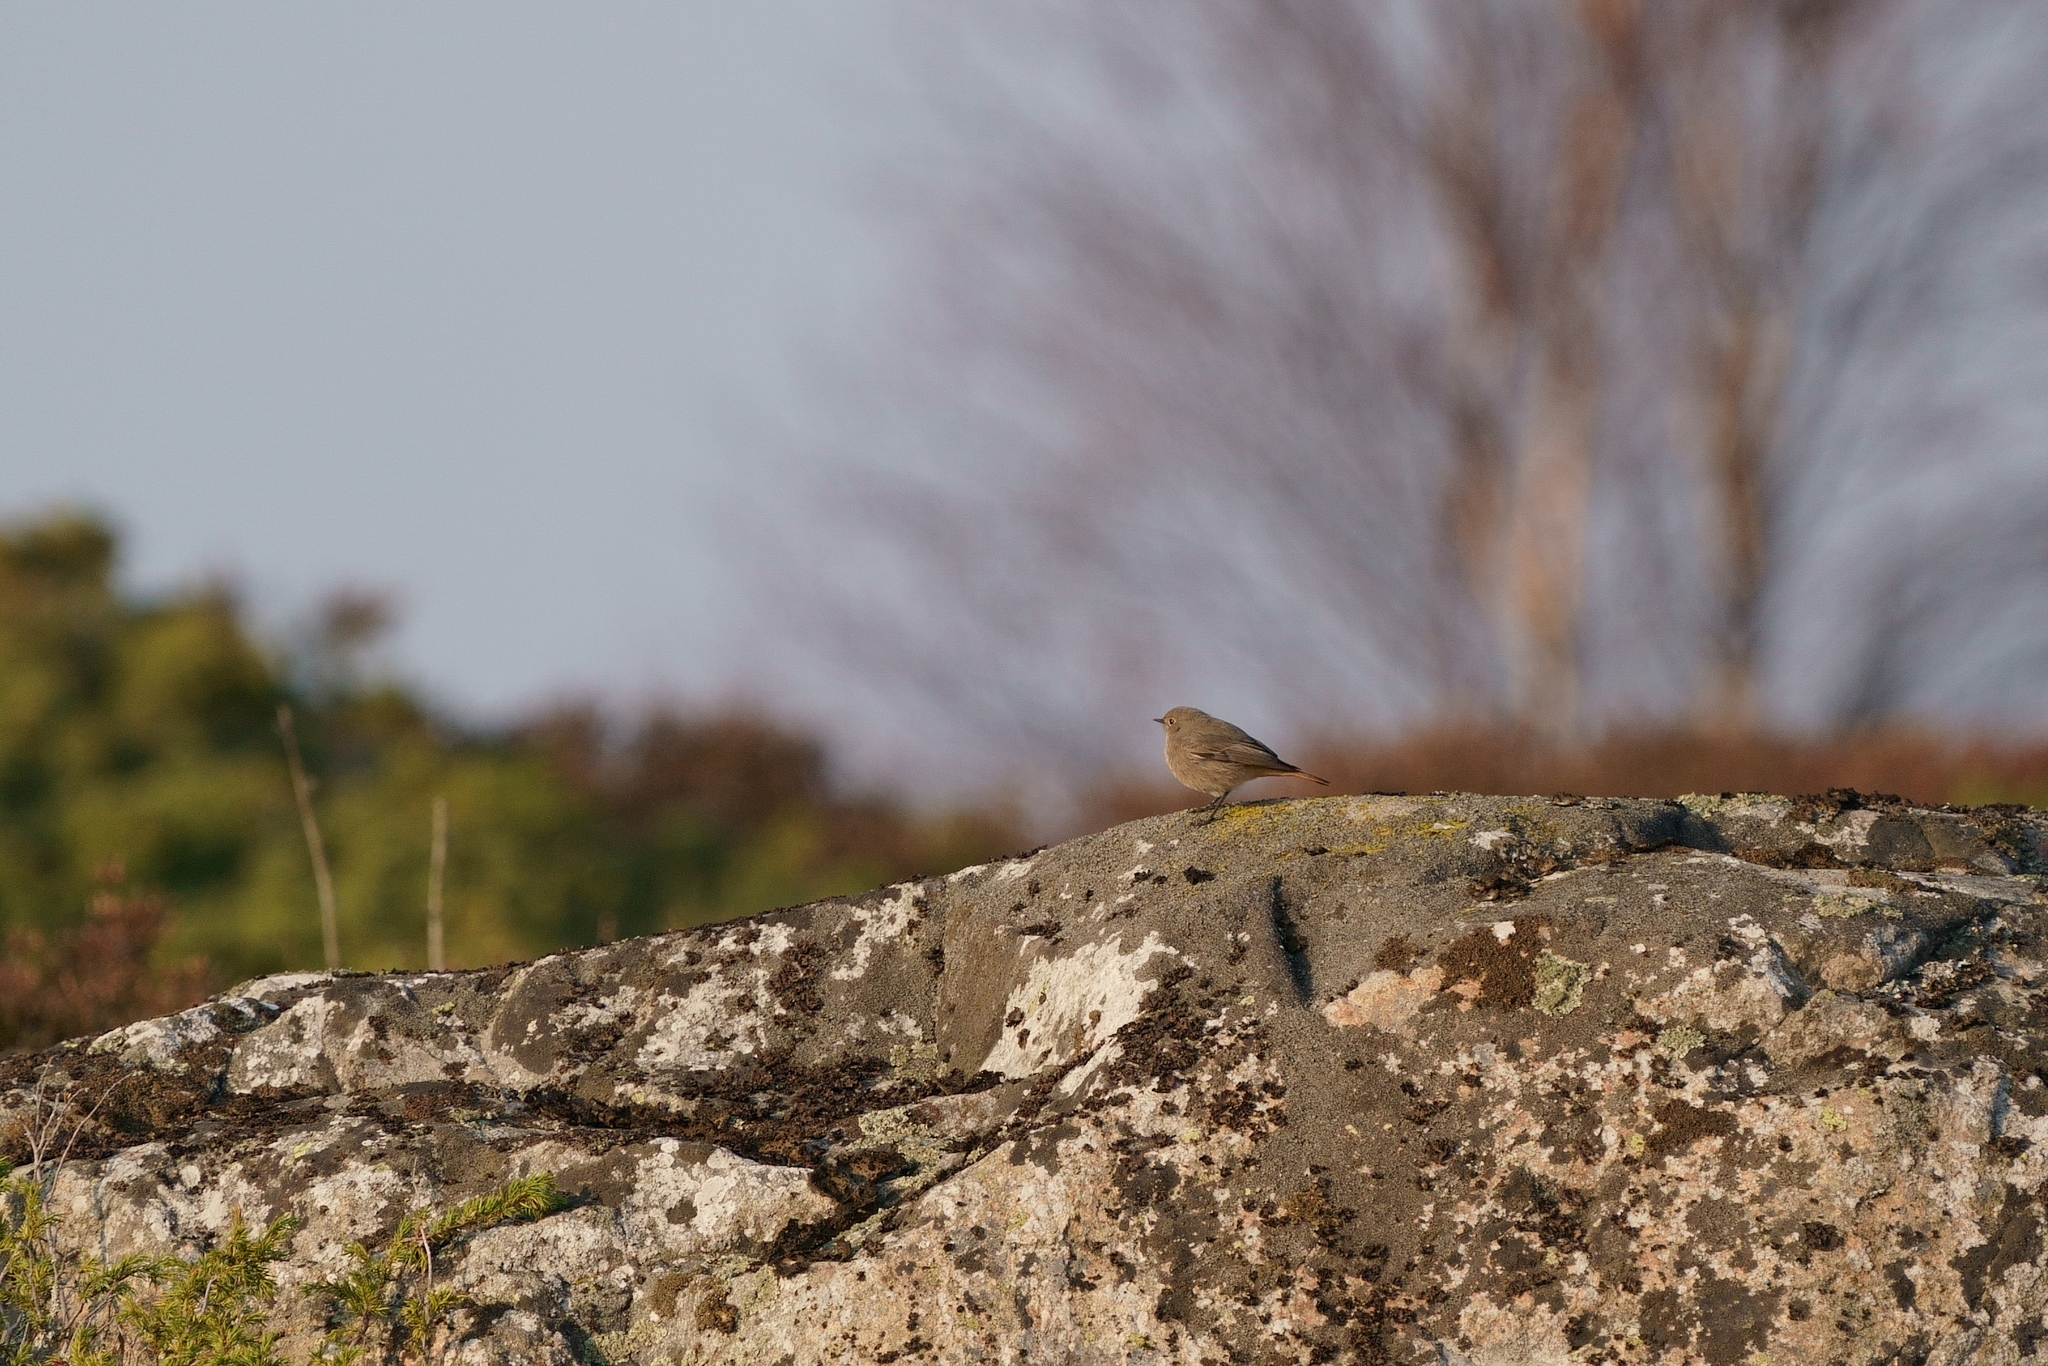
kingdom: Animalia
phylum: Chordata
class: Aves
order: Passeriformes
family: Muscicapidae
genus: Phoenicurus
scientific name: Phoenicurus ochruros
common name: Black redstart
